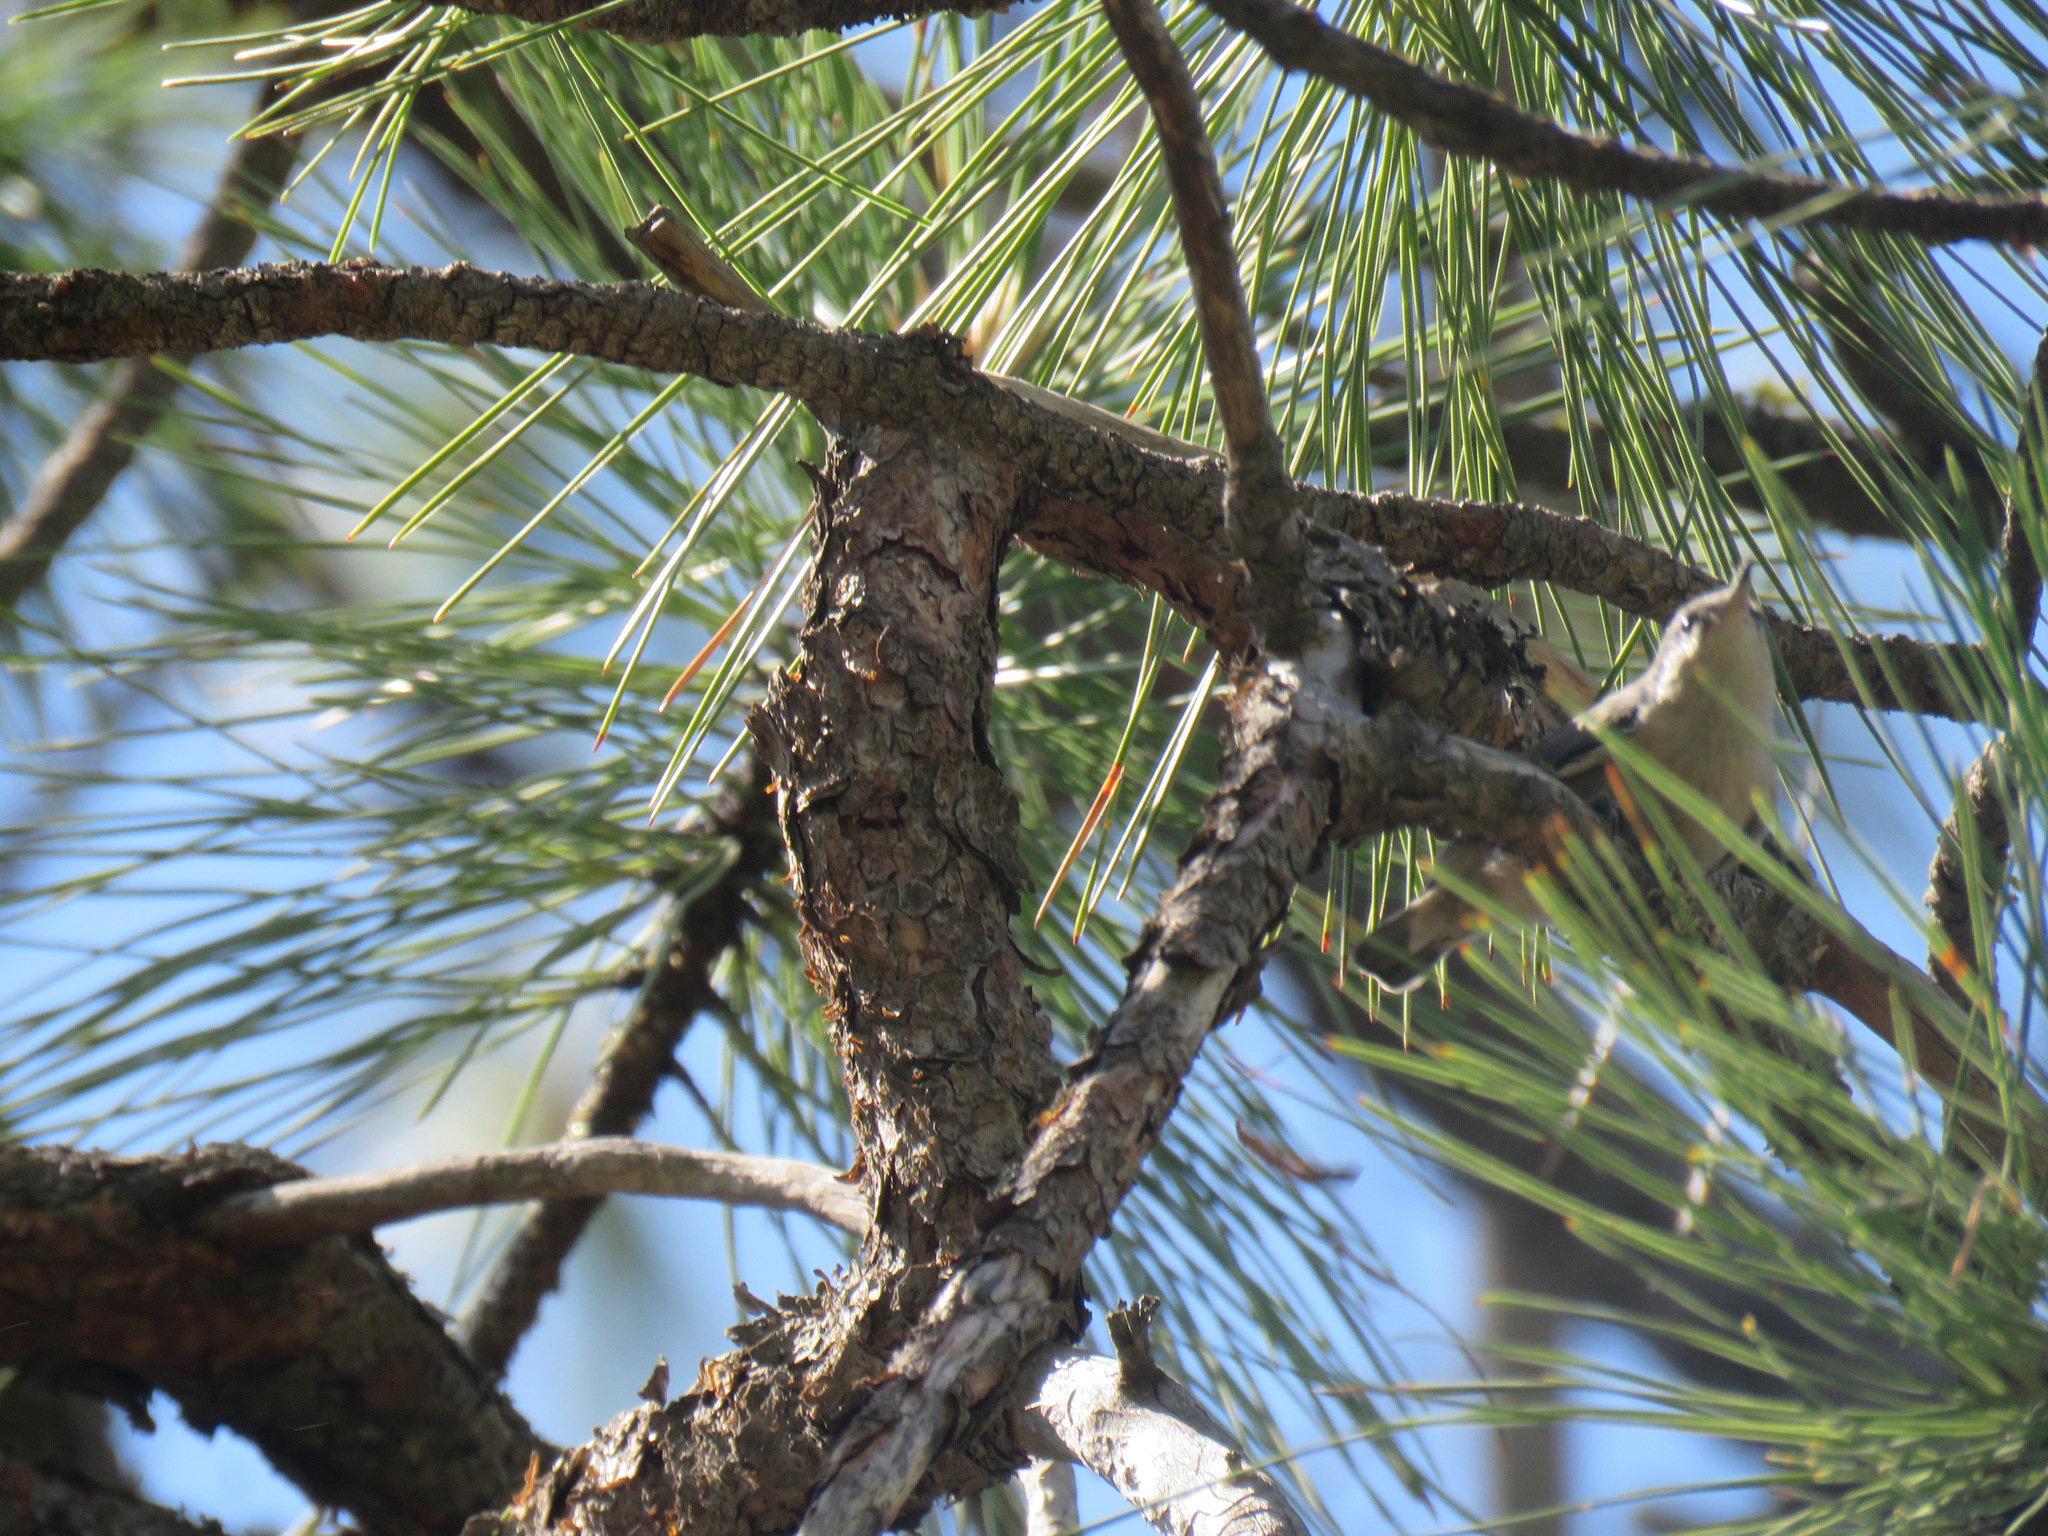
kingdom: Animalia
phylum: Chordata
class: Aves
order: Passeriformes
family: Sittidae
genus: Sitta
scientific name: Sitta pygmaea
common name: Pygmy nuthatch
